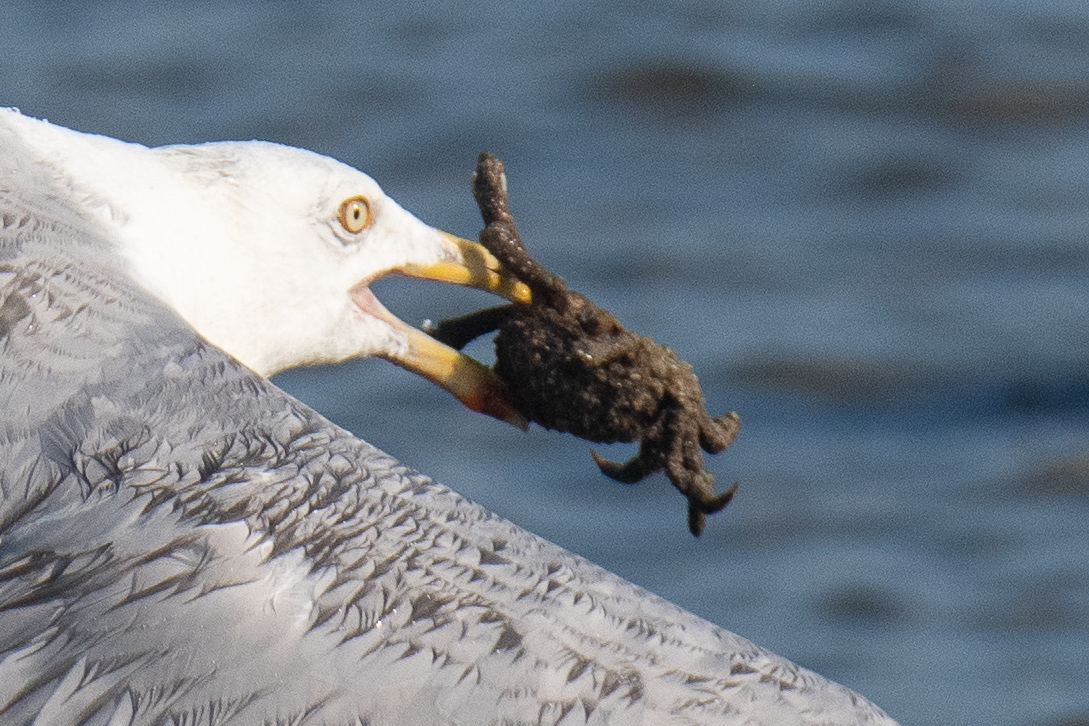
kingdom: Animalia
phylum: Arthropoda
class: Malacostraca
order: Decapoda
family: Epialtidae
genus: Libinia
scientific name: Libinia
